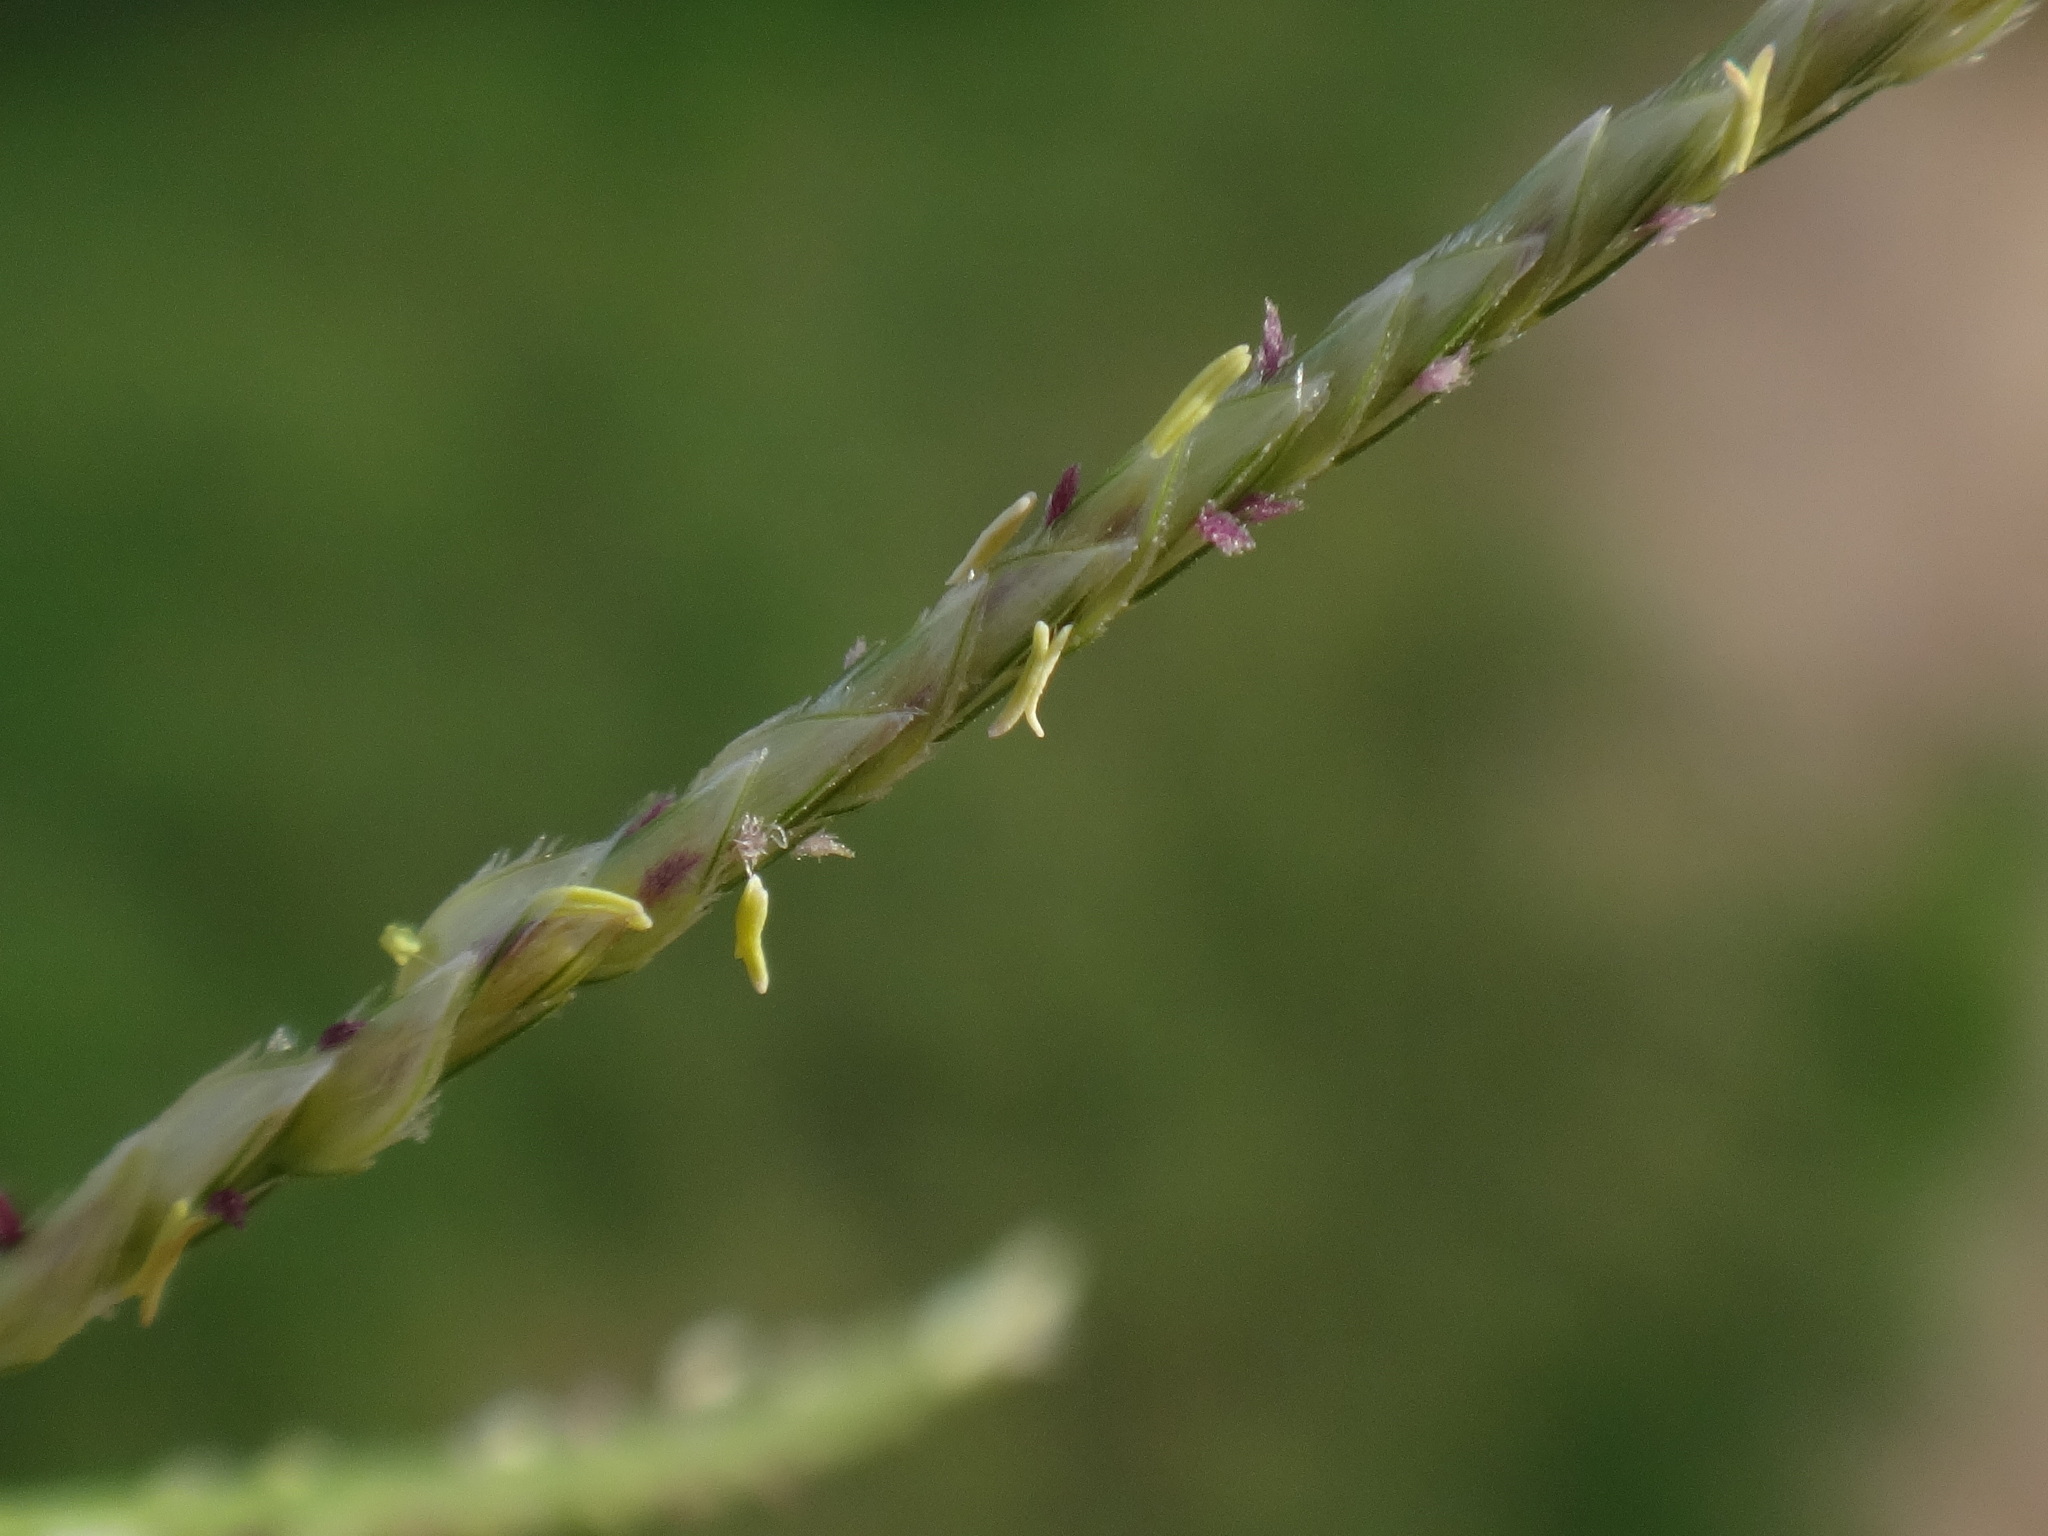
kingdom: Plantae
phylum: Tracheophyta
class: Liliopsida
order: Poales
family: Poaceae
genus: Cynodon
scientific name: Cynodon dactylon
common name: Bermuda grass
